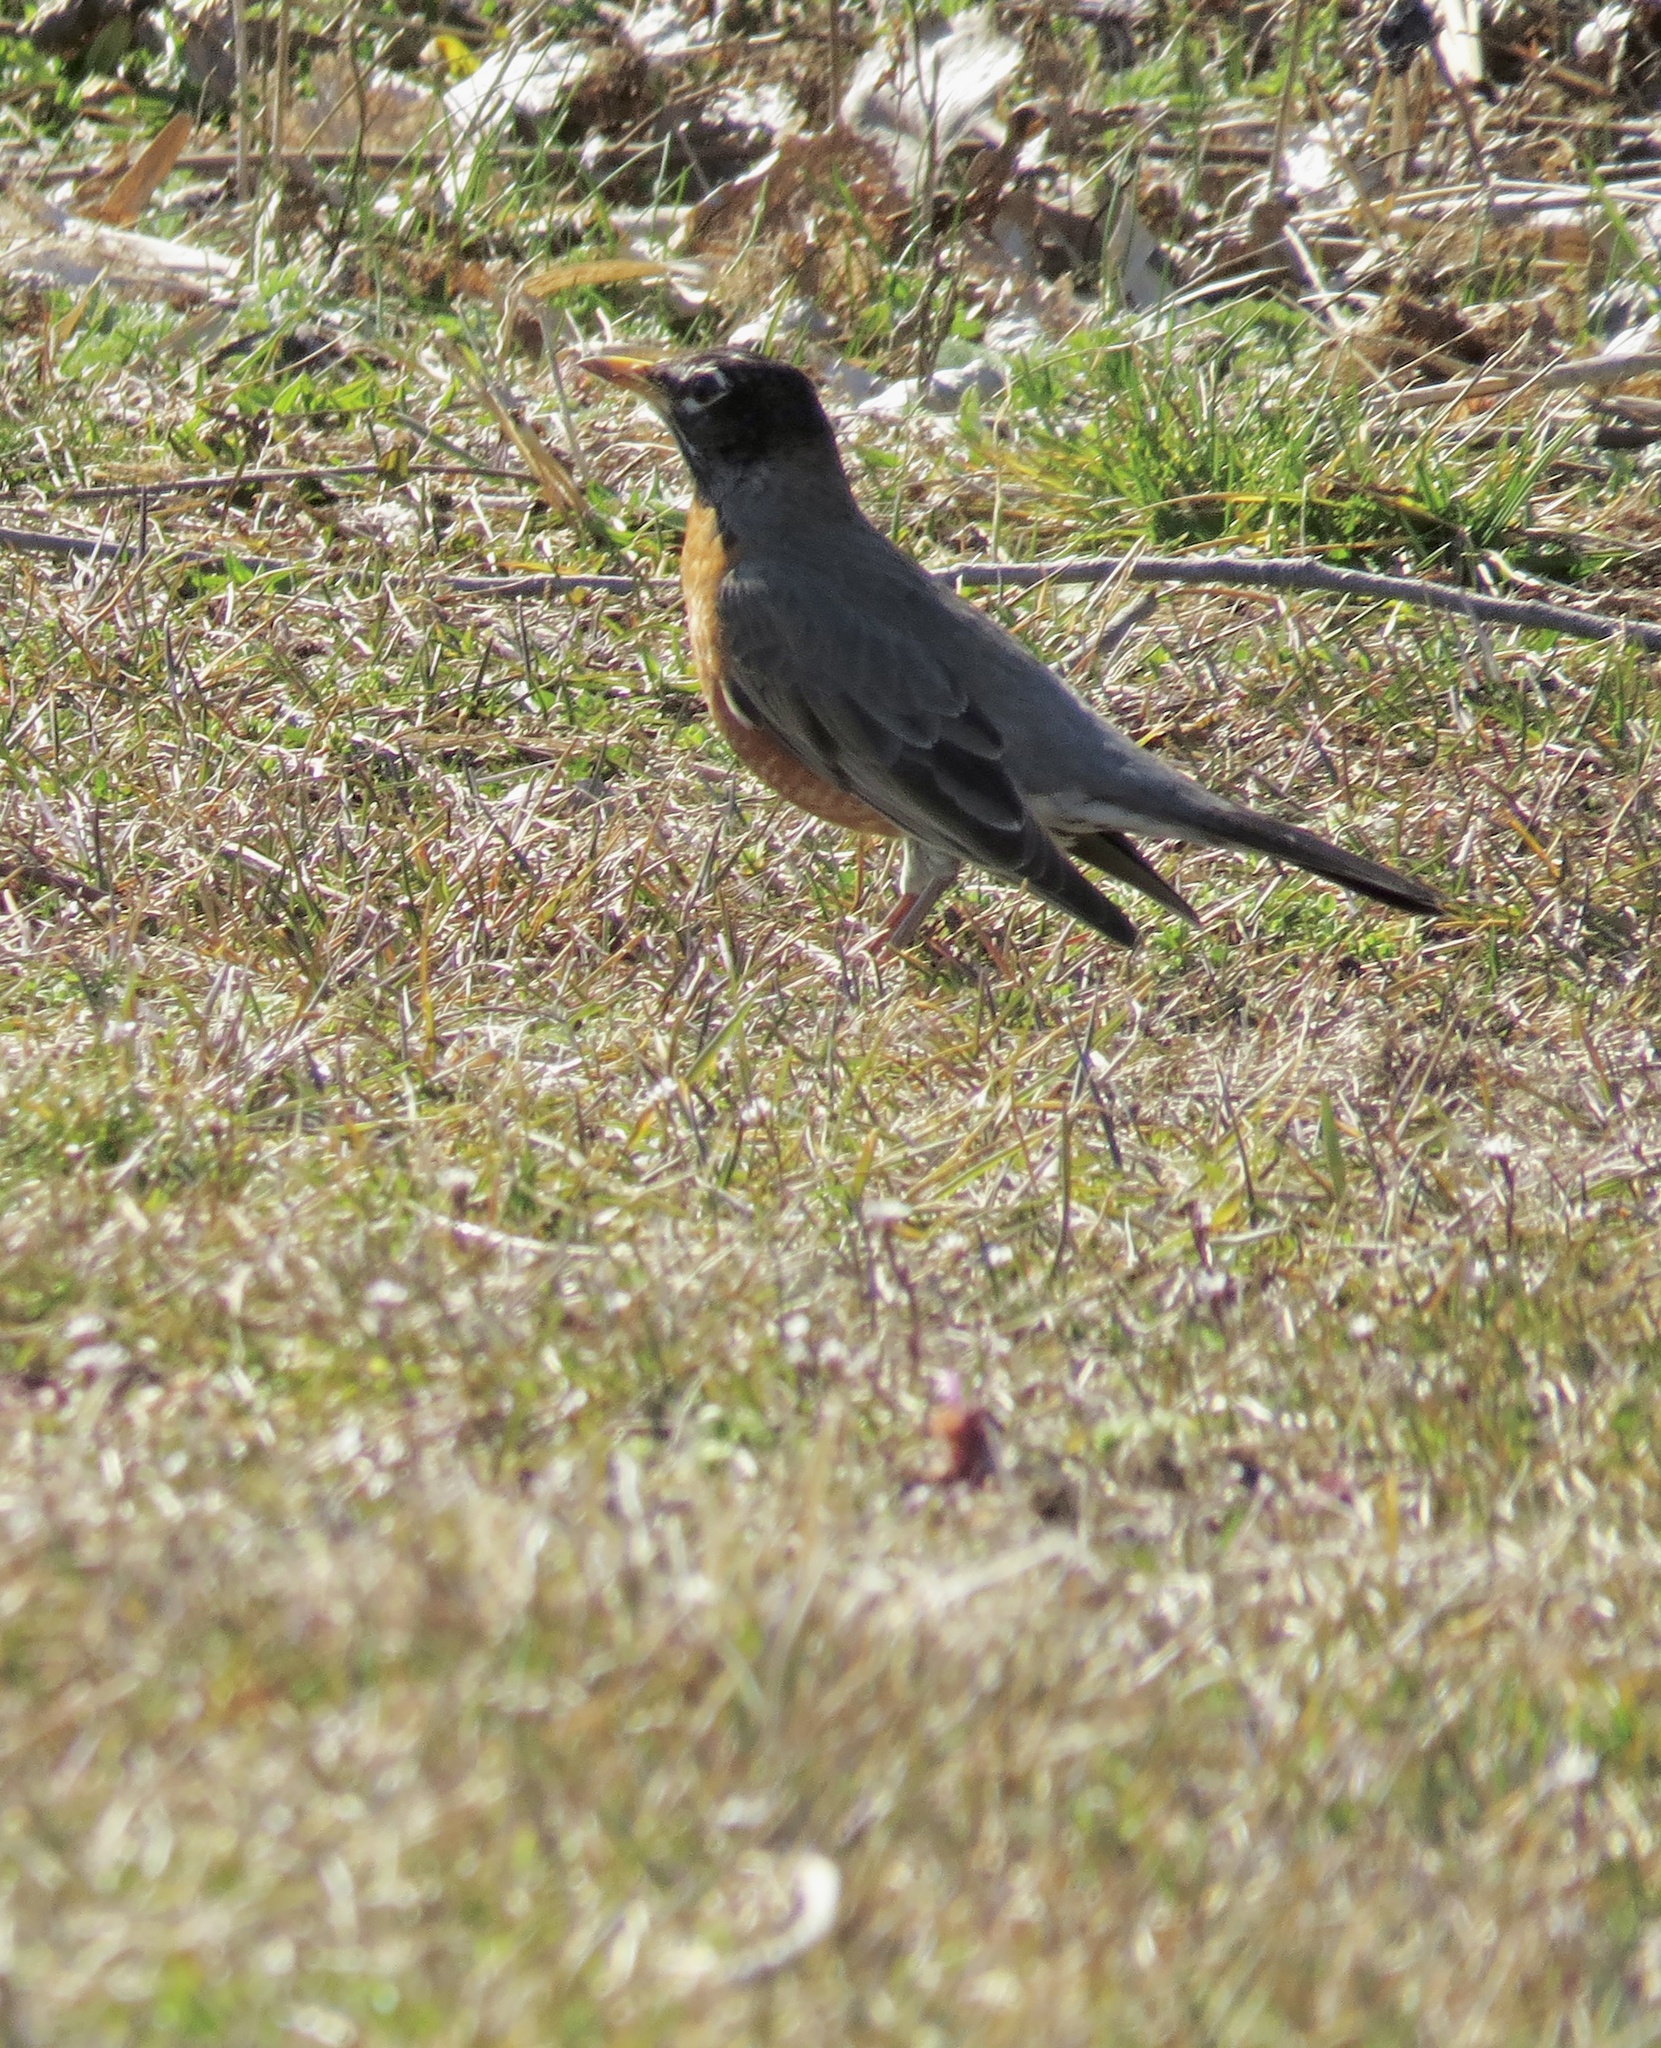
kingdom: Animalia
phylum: Chordata
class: Aves
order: Passeriformes
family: Turdidae
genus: Turdus
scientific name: Turdus migratorius
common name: American robin
